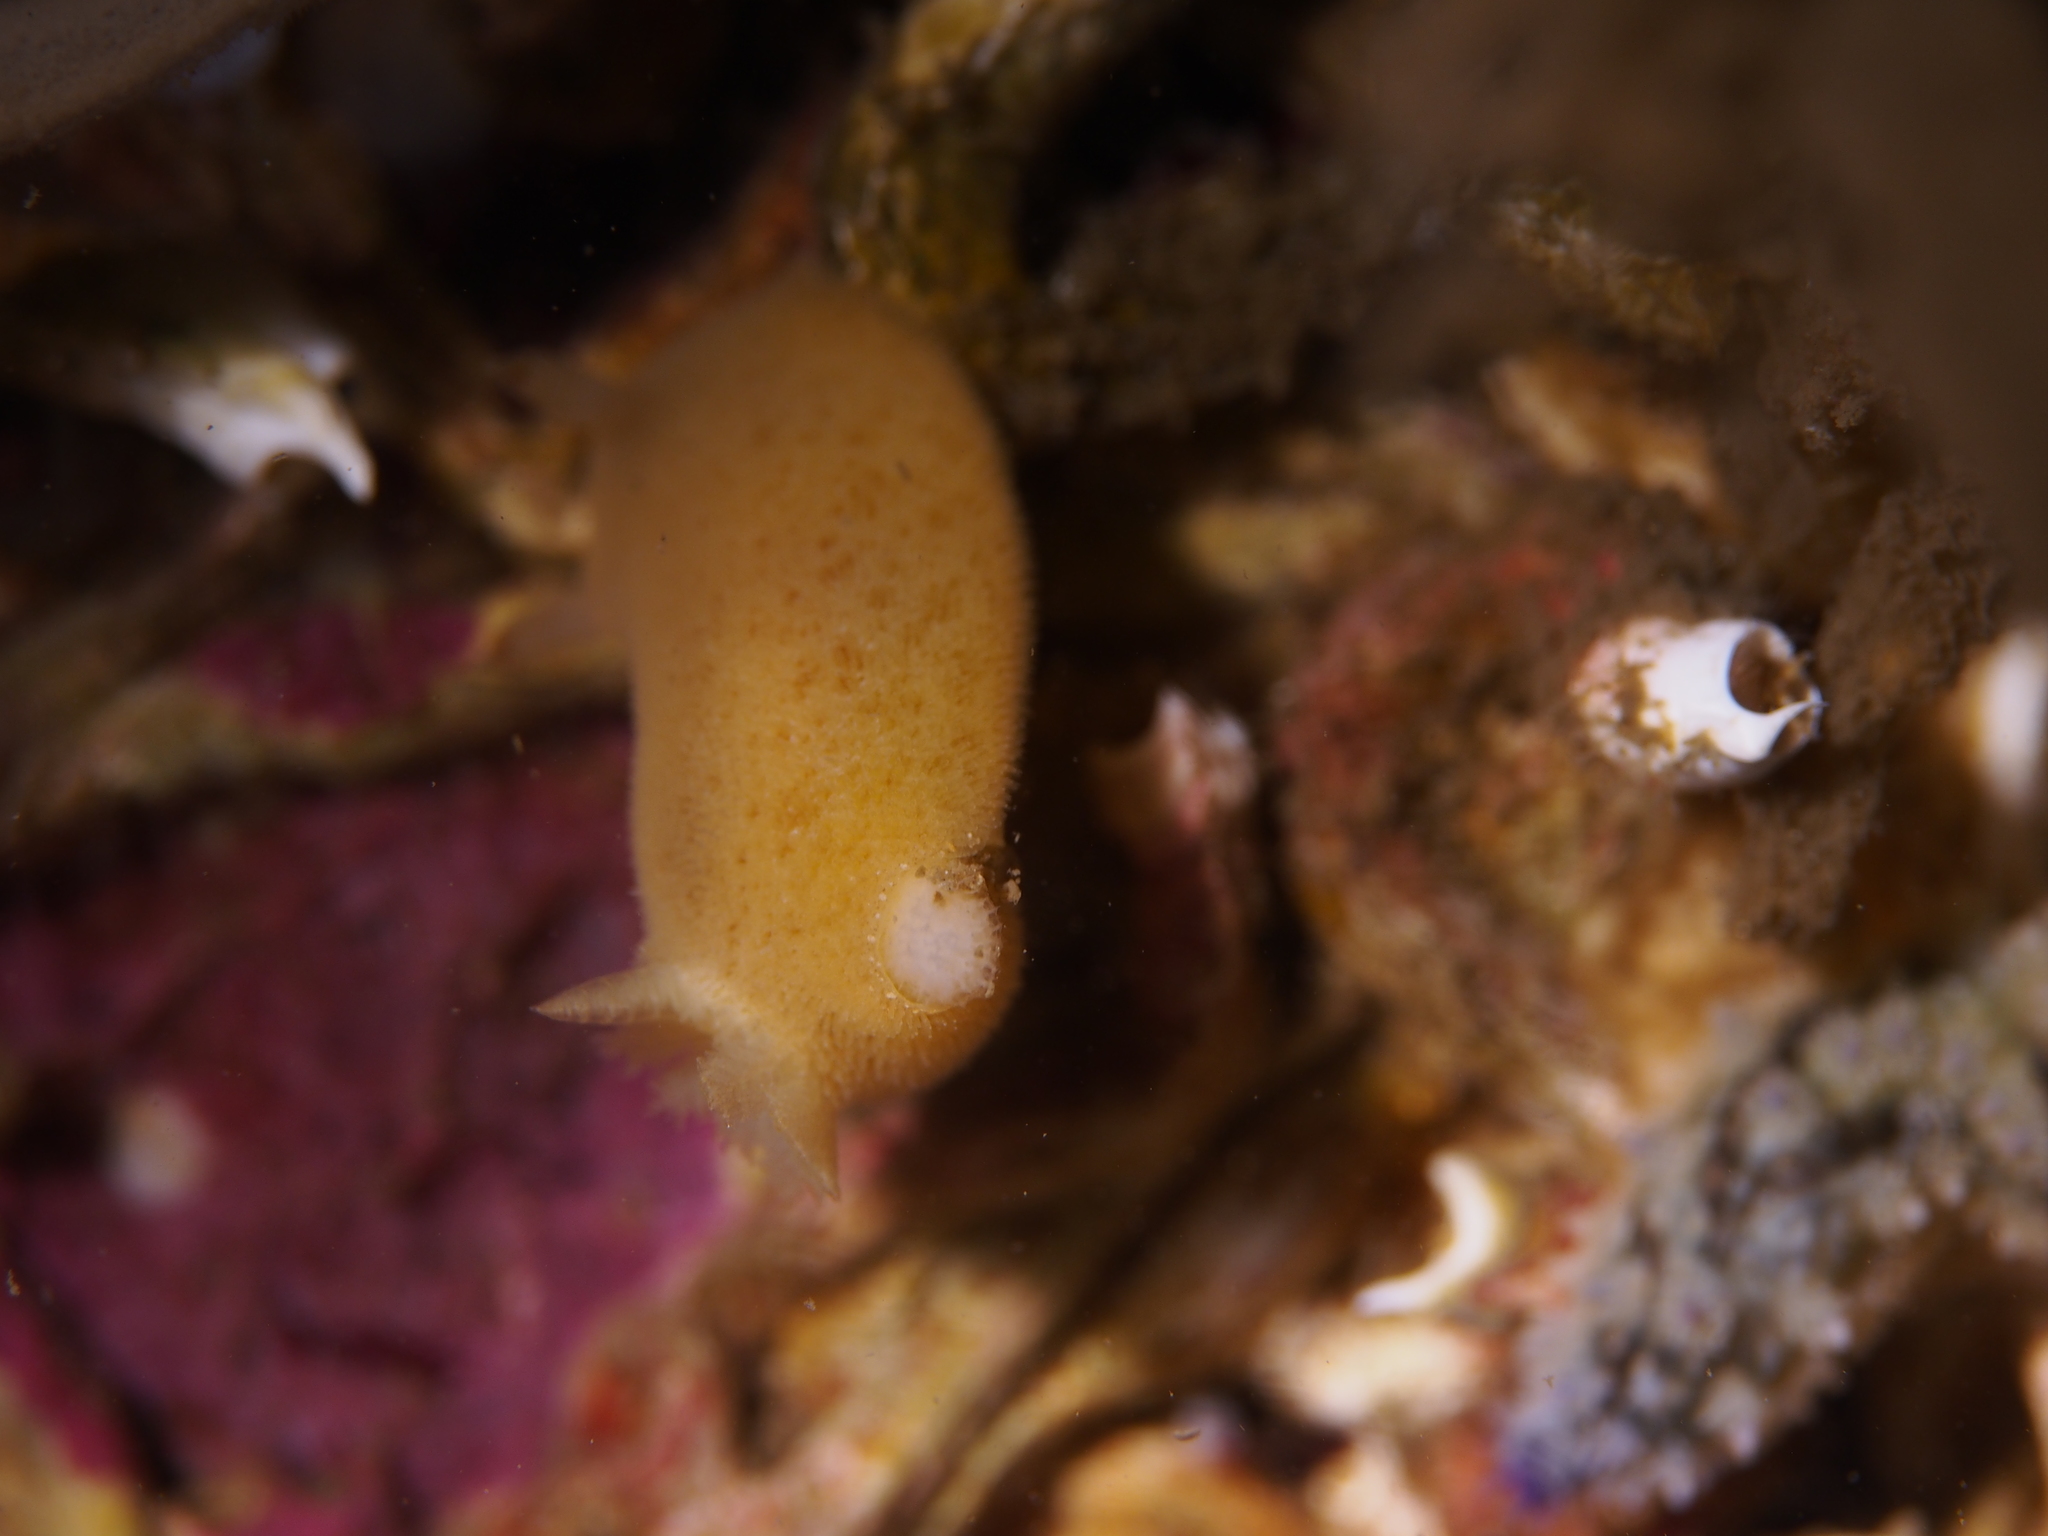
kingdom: Animalia
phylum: Mollusca
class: Gastropoda
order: Nudibranchia
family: Discodorididae
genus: Jorunna
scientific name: Jorunna tomentosa
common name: Grey sea slug
